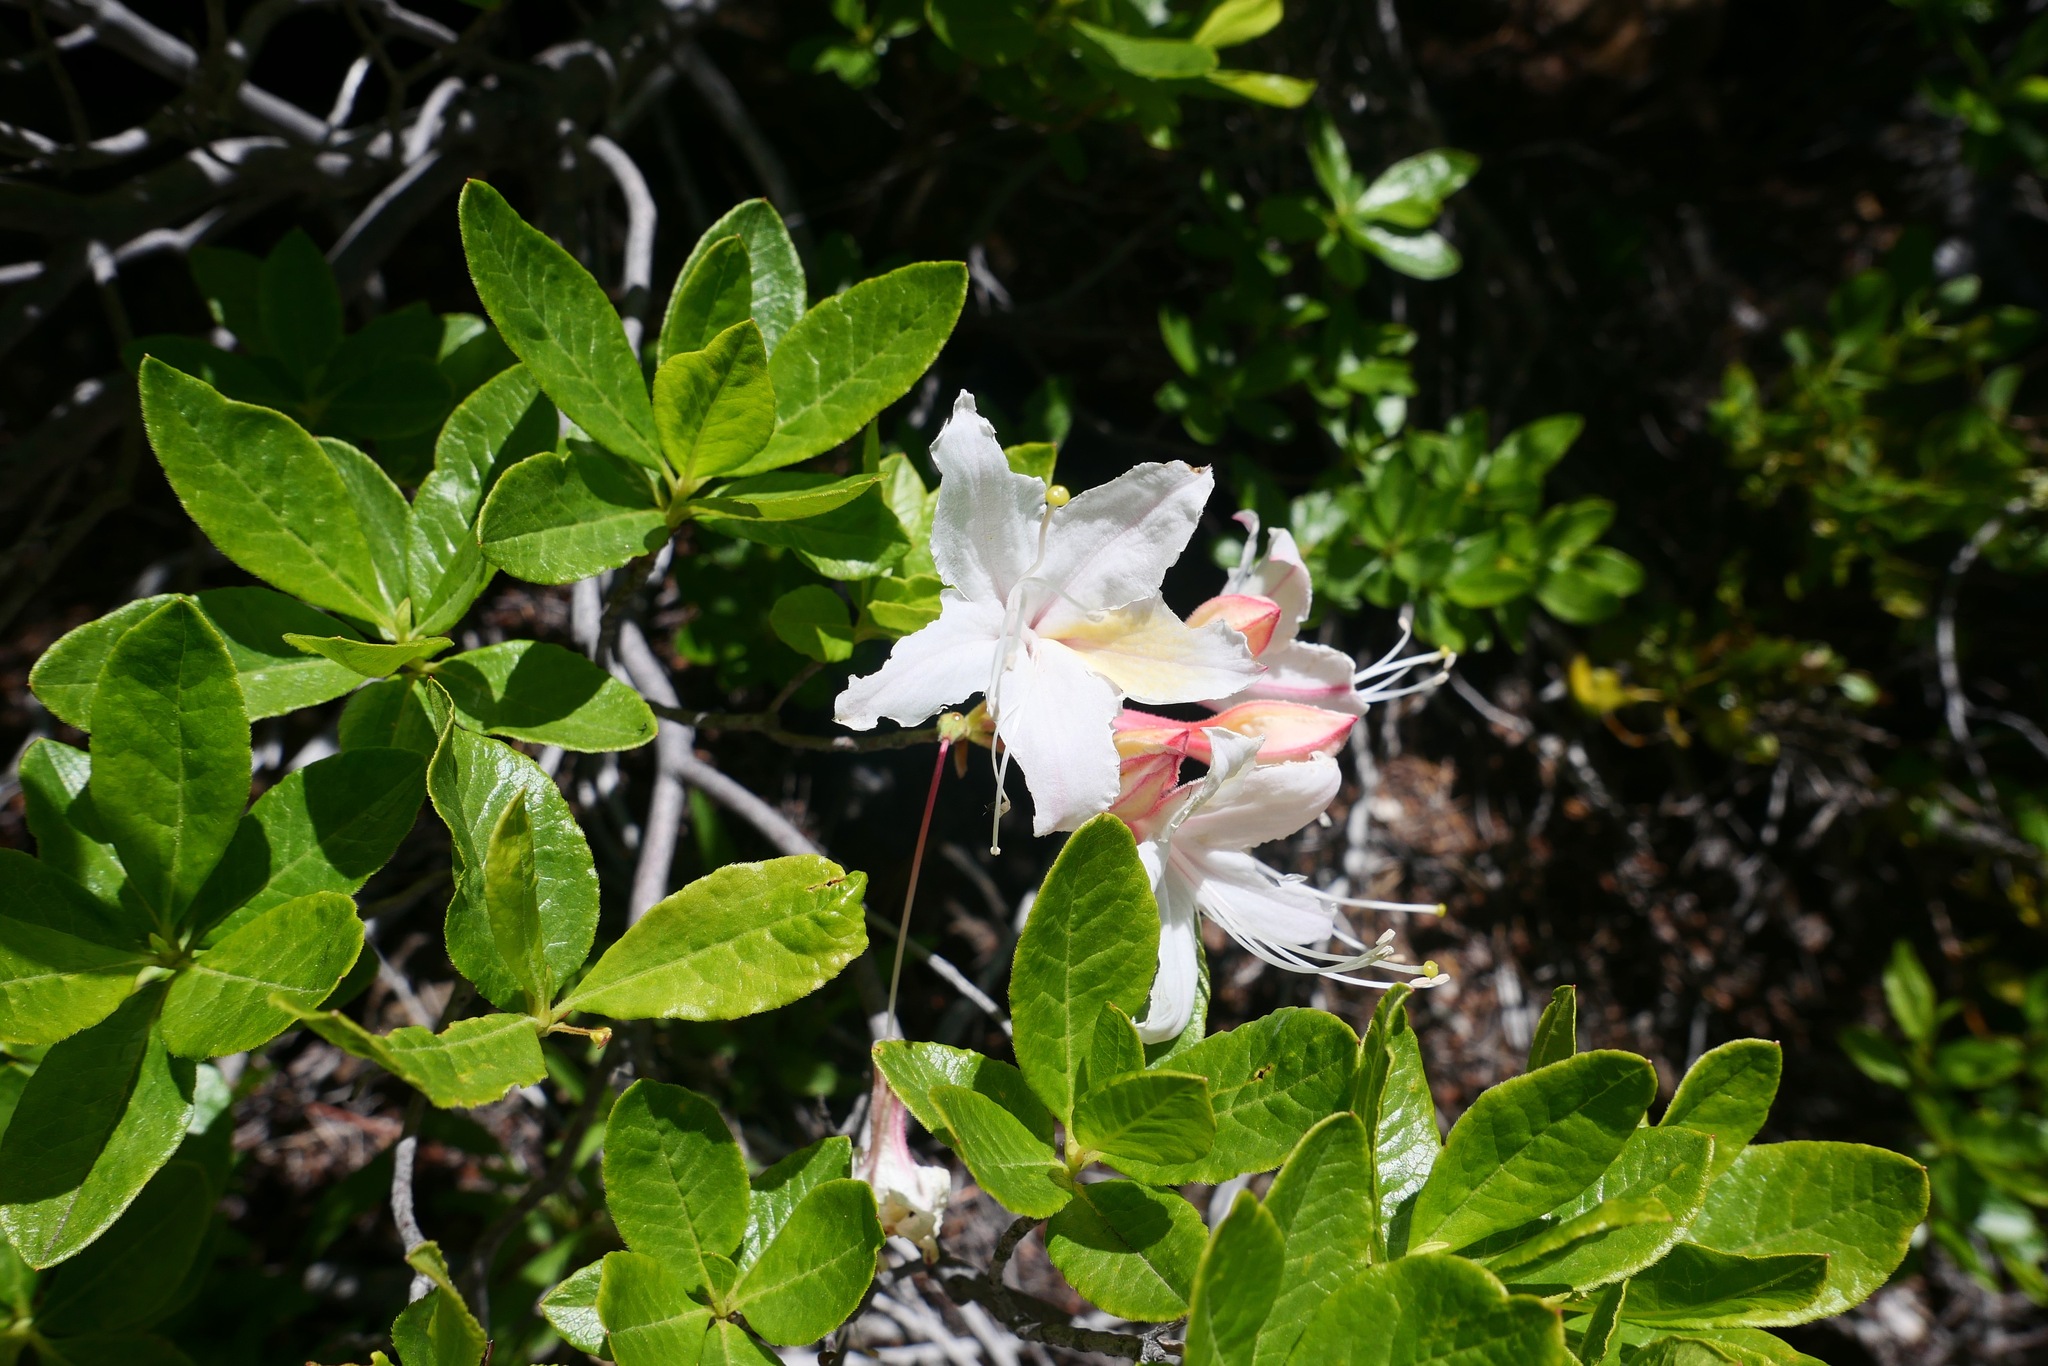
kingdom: Plantae
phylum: Tracheophyta
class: Magnoliopsida
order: Ericales
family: Ericaceae
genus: Rhododendron
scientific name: Rhododendron occidentale
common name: Western azalea
